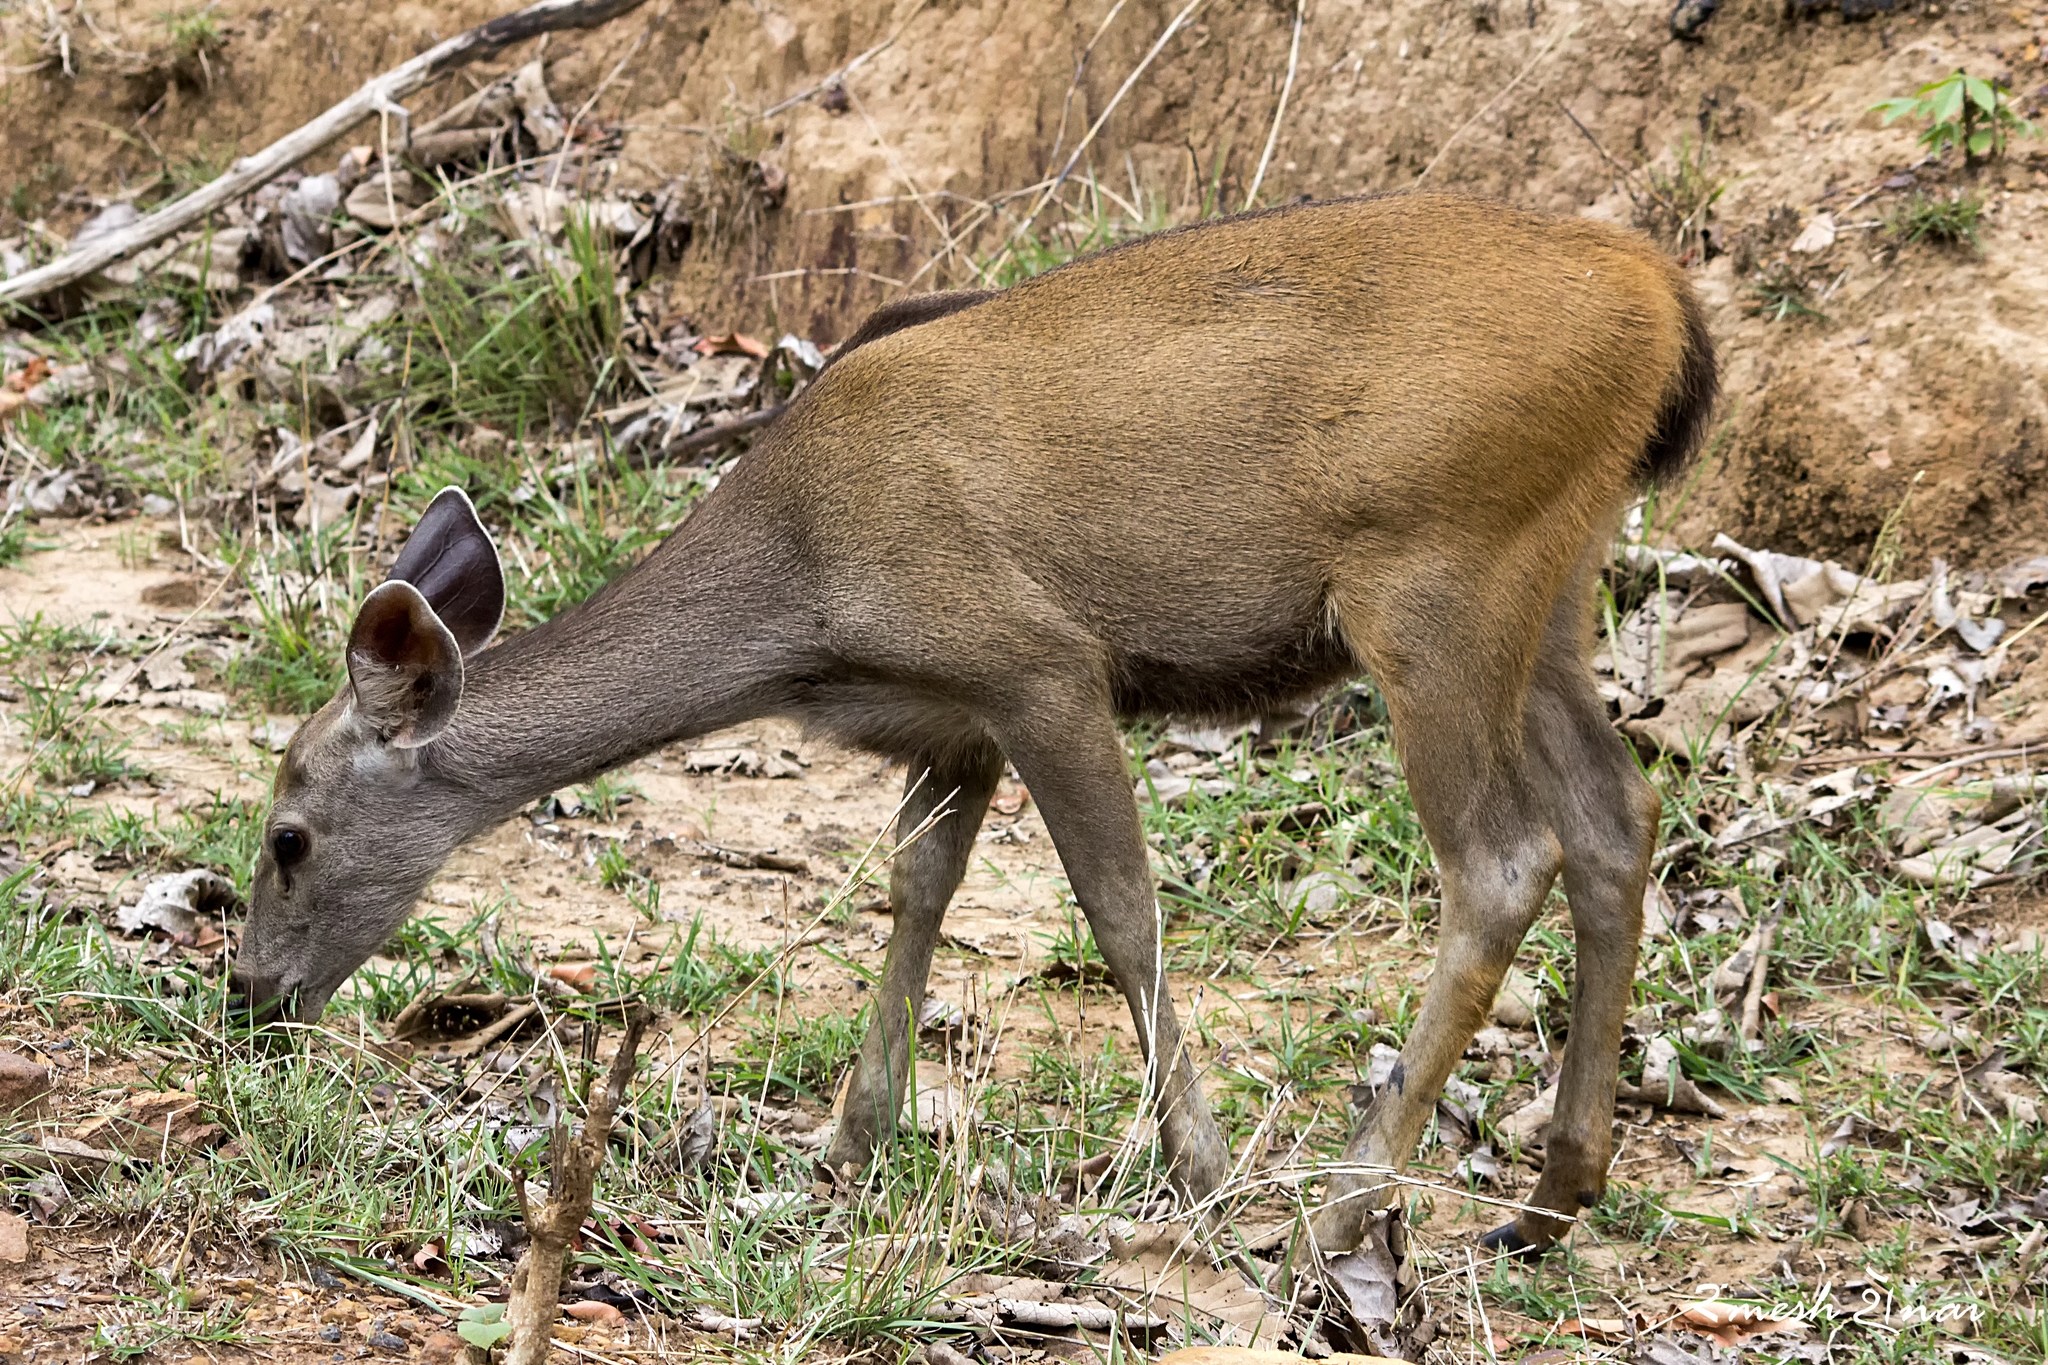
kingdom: Animalia
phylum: Chordata
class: Mammalia
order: Artiodactyla
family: Cervidae
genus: Rusa
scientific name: Rusa unicolor
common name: Sambar
